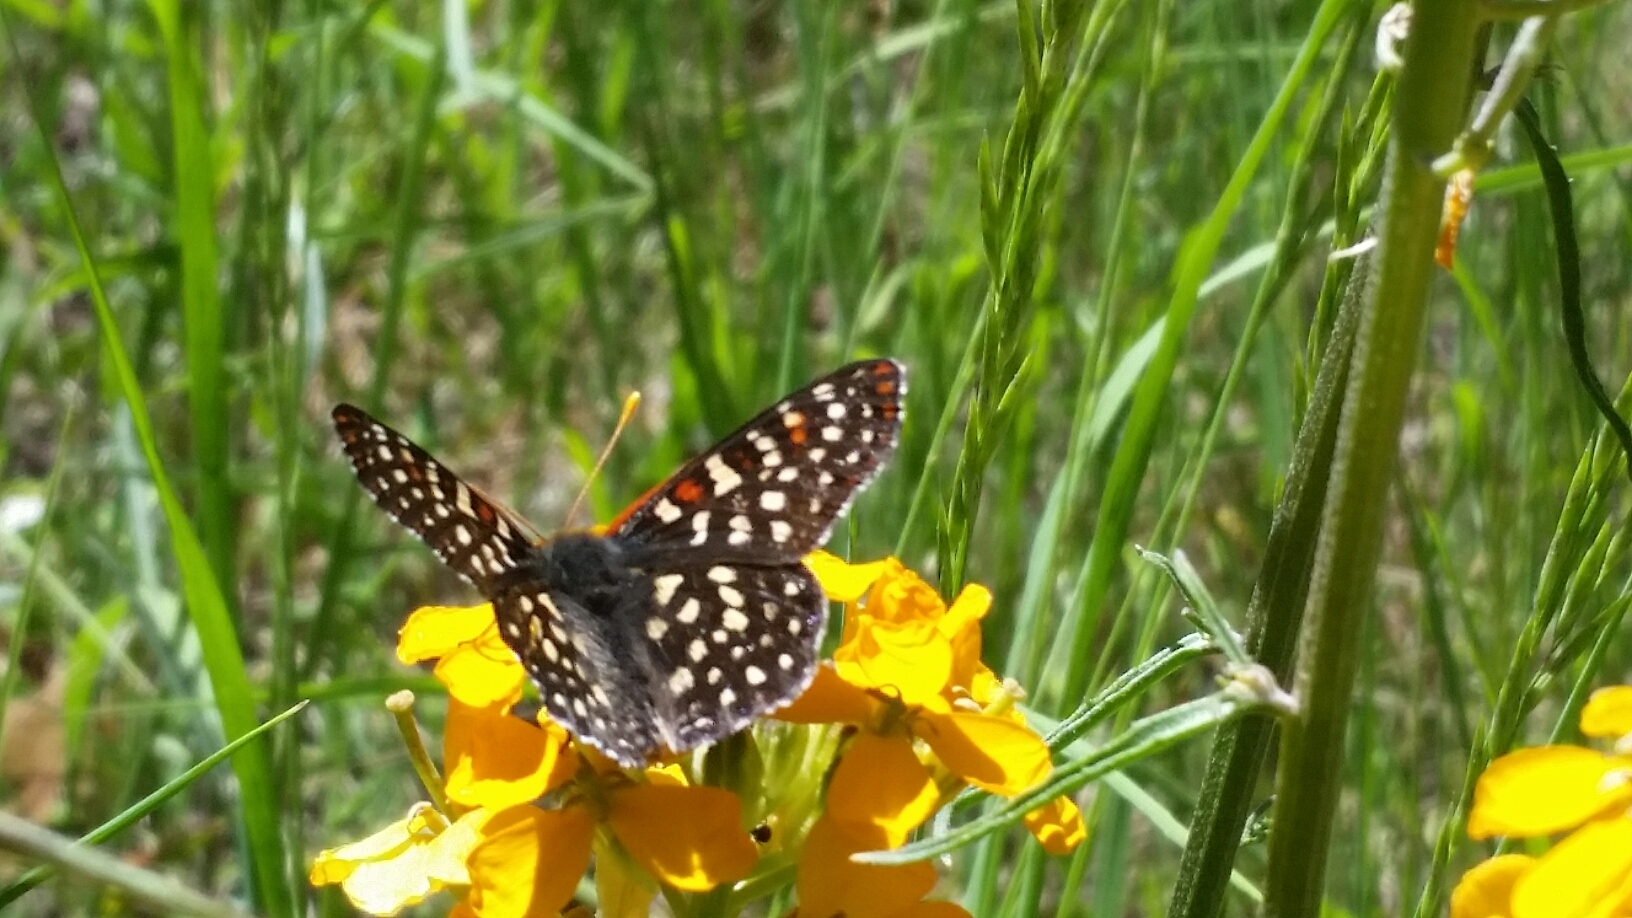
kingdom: Animalia
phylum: Arthropoda
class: Insecta
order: Lepidoptera
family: Nymphalidae
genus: Occidryas
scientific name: Occidryas chalcedona
